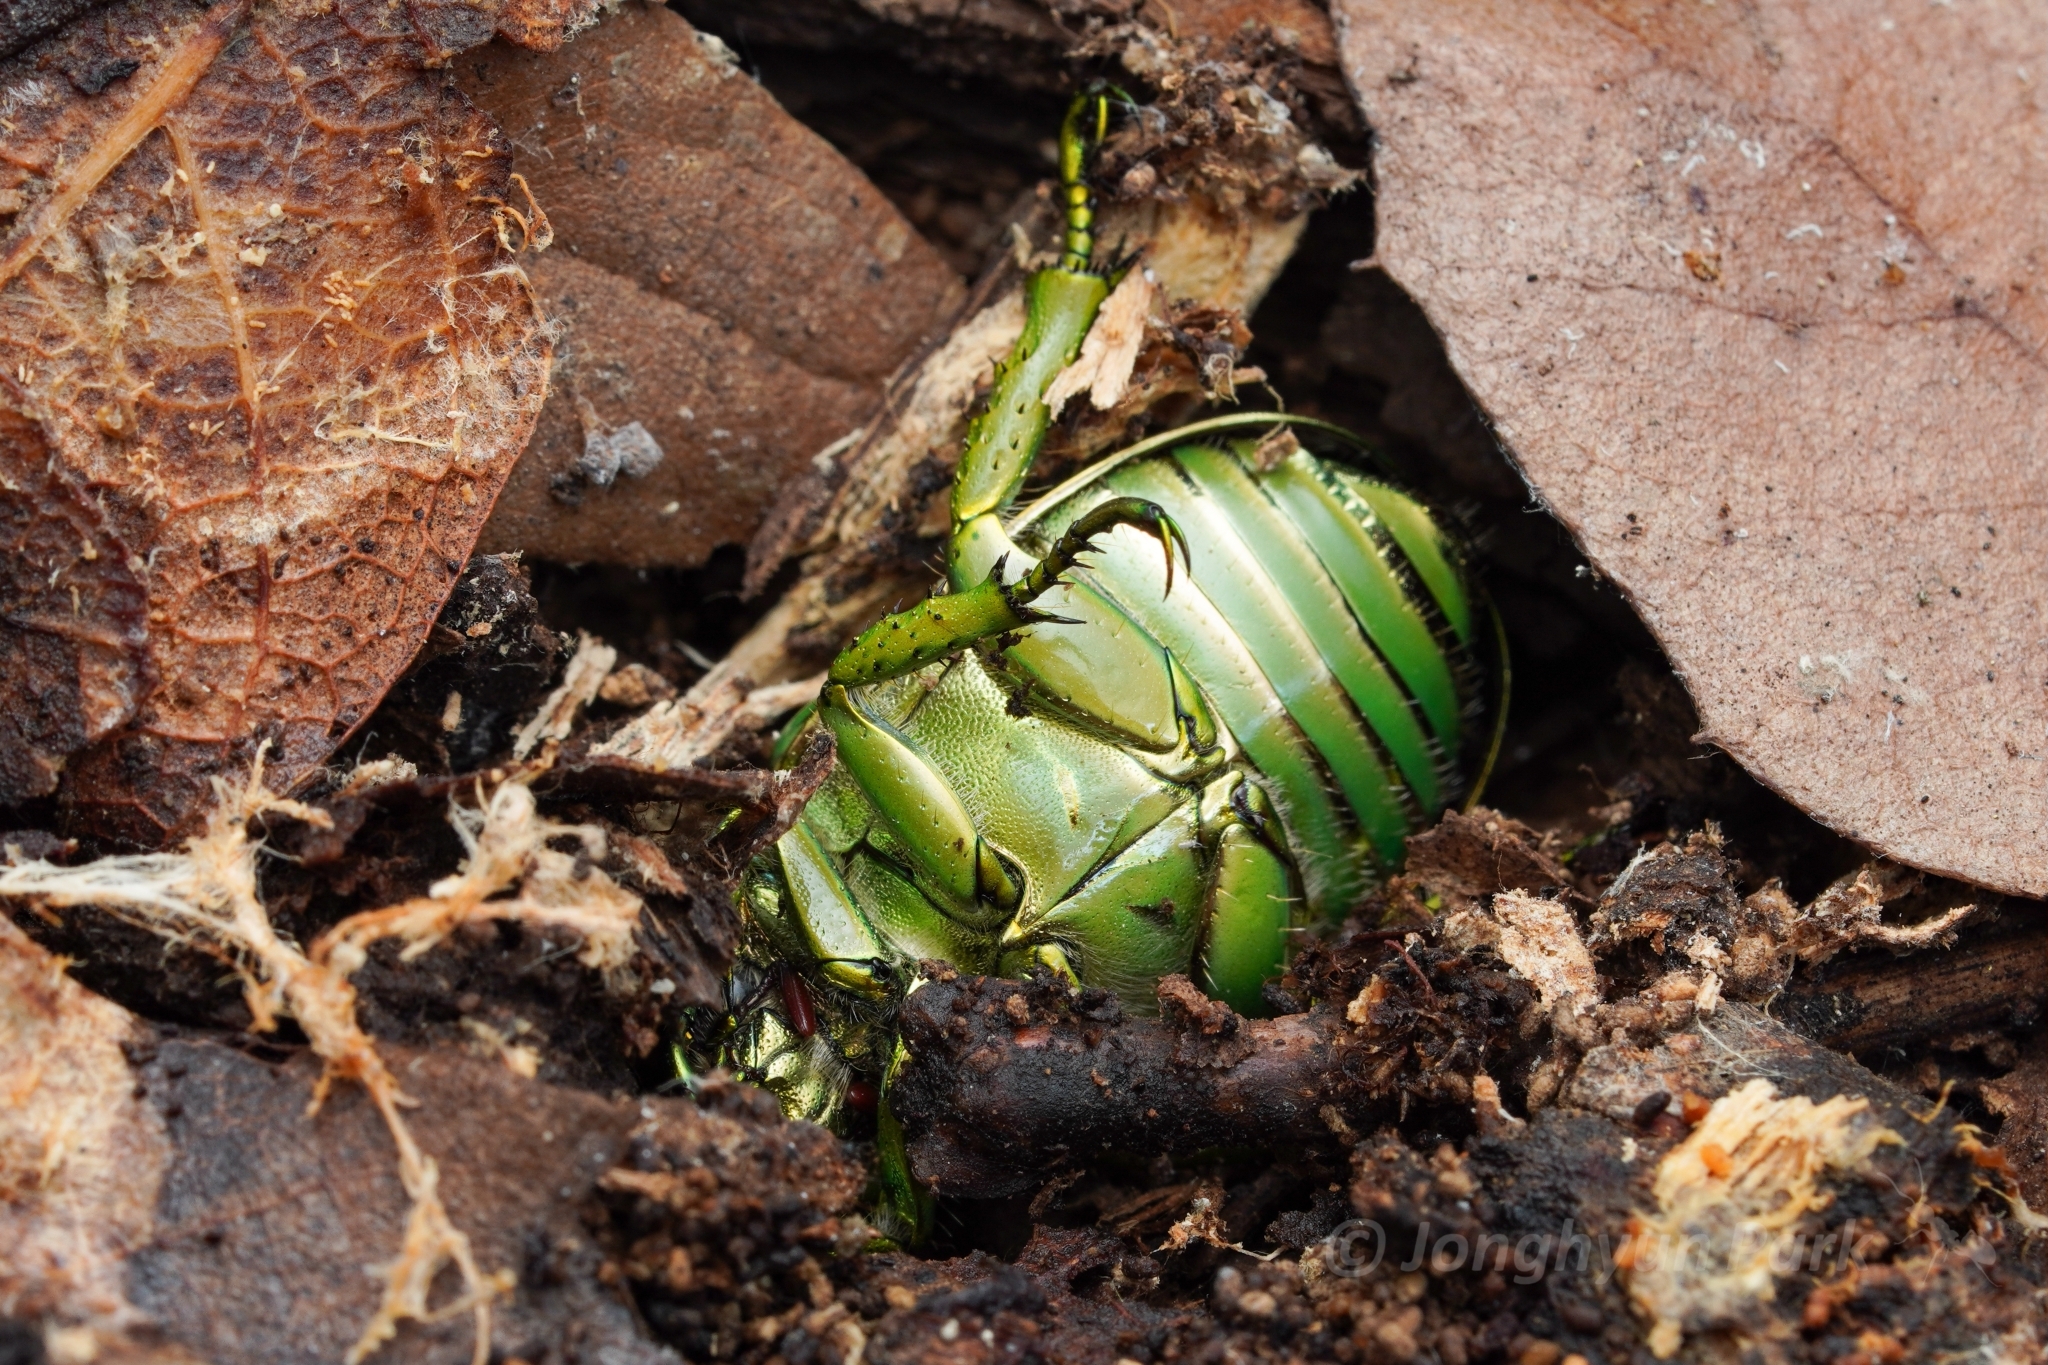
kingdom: Animalia
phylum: Arthropoda
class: Insecta
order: Coleoptera
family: Scarabaeidae
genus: Chrysina
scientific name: Chrysina gloriosa
